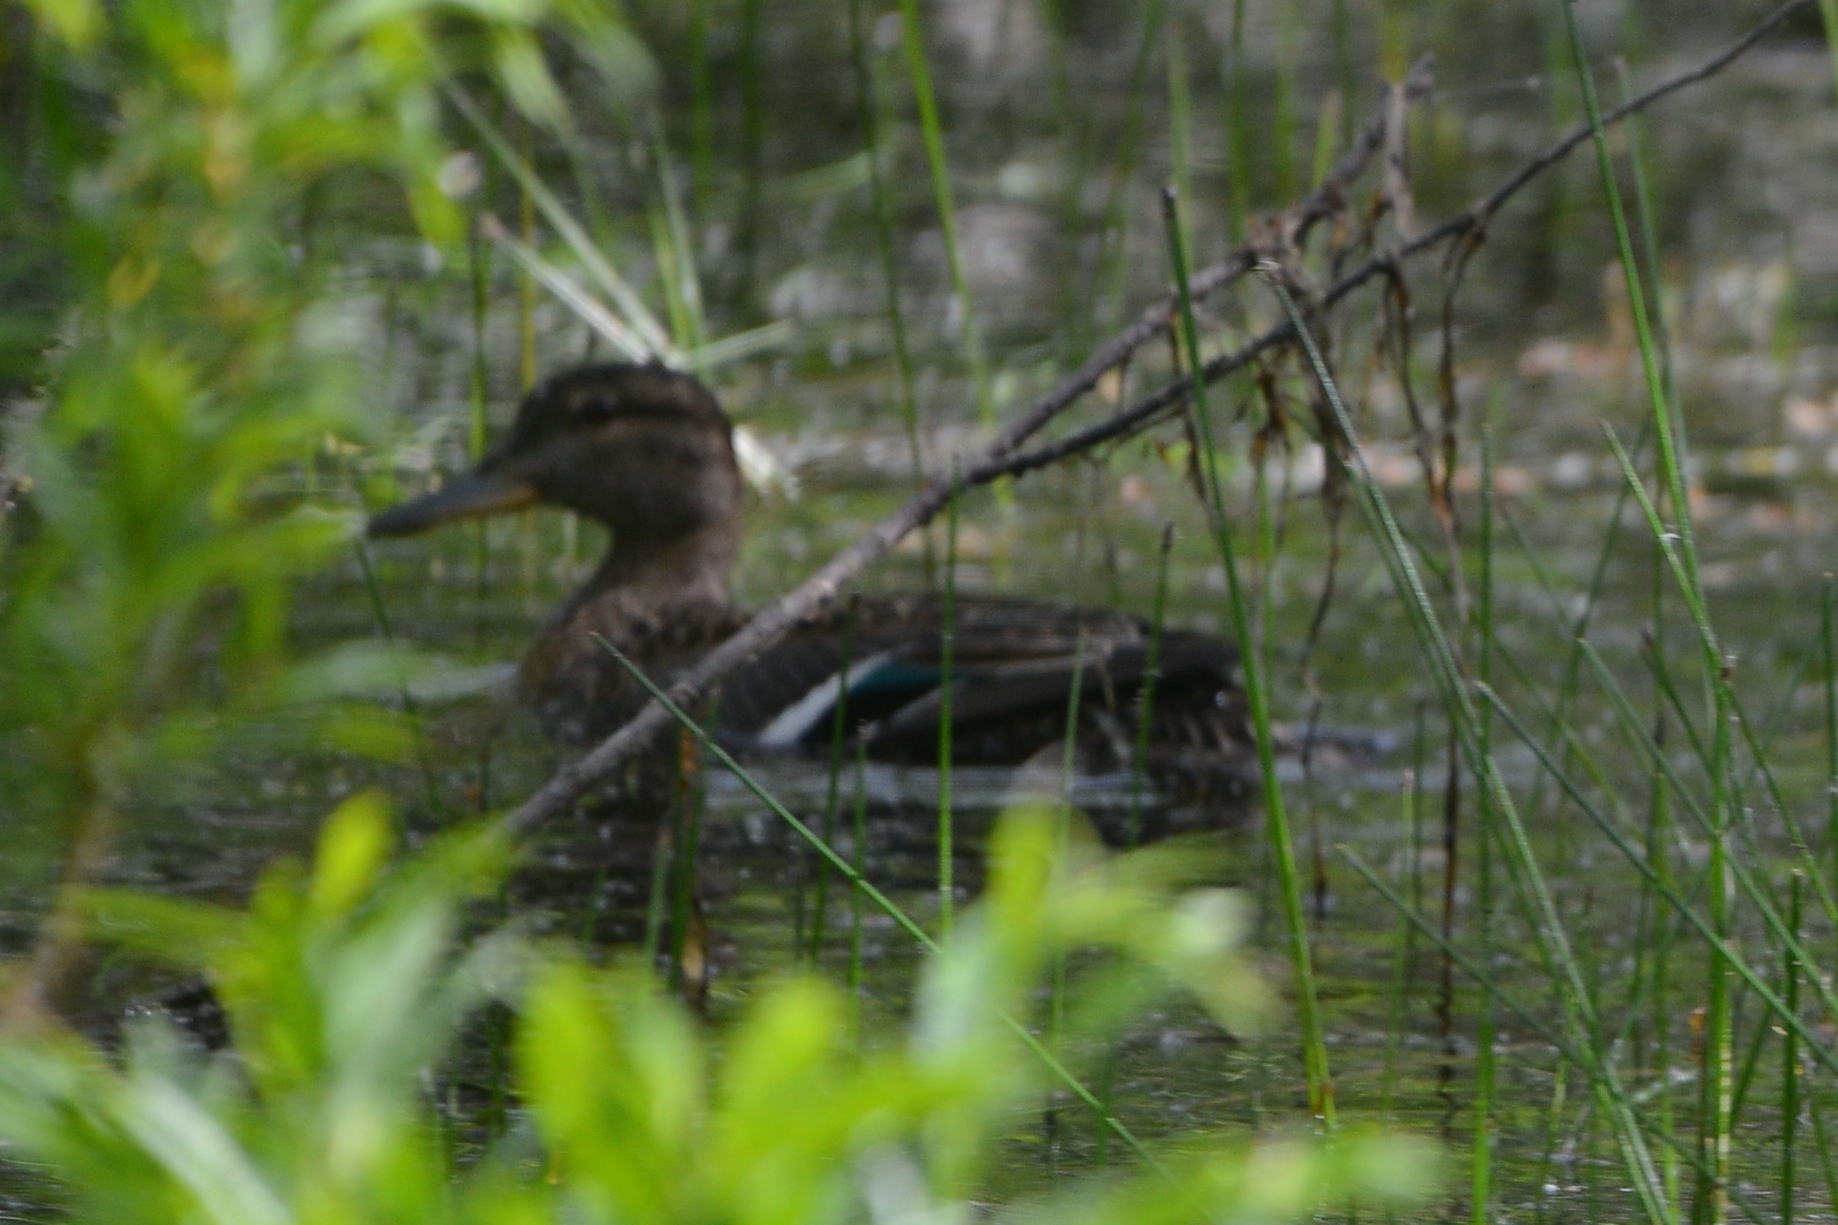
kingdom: Animalia
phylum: Chordata
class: Aves
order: Anseriformes
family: Anatidae
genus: Anas
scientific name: Anas crecca
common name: Eurasian teal
